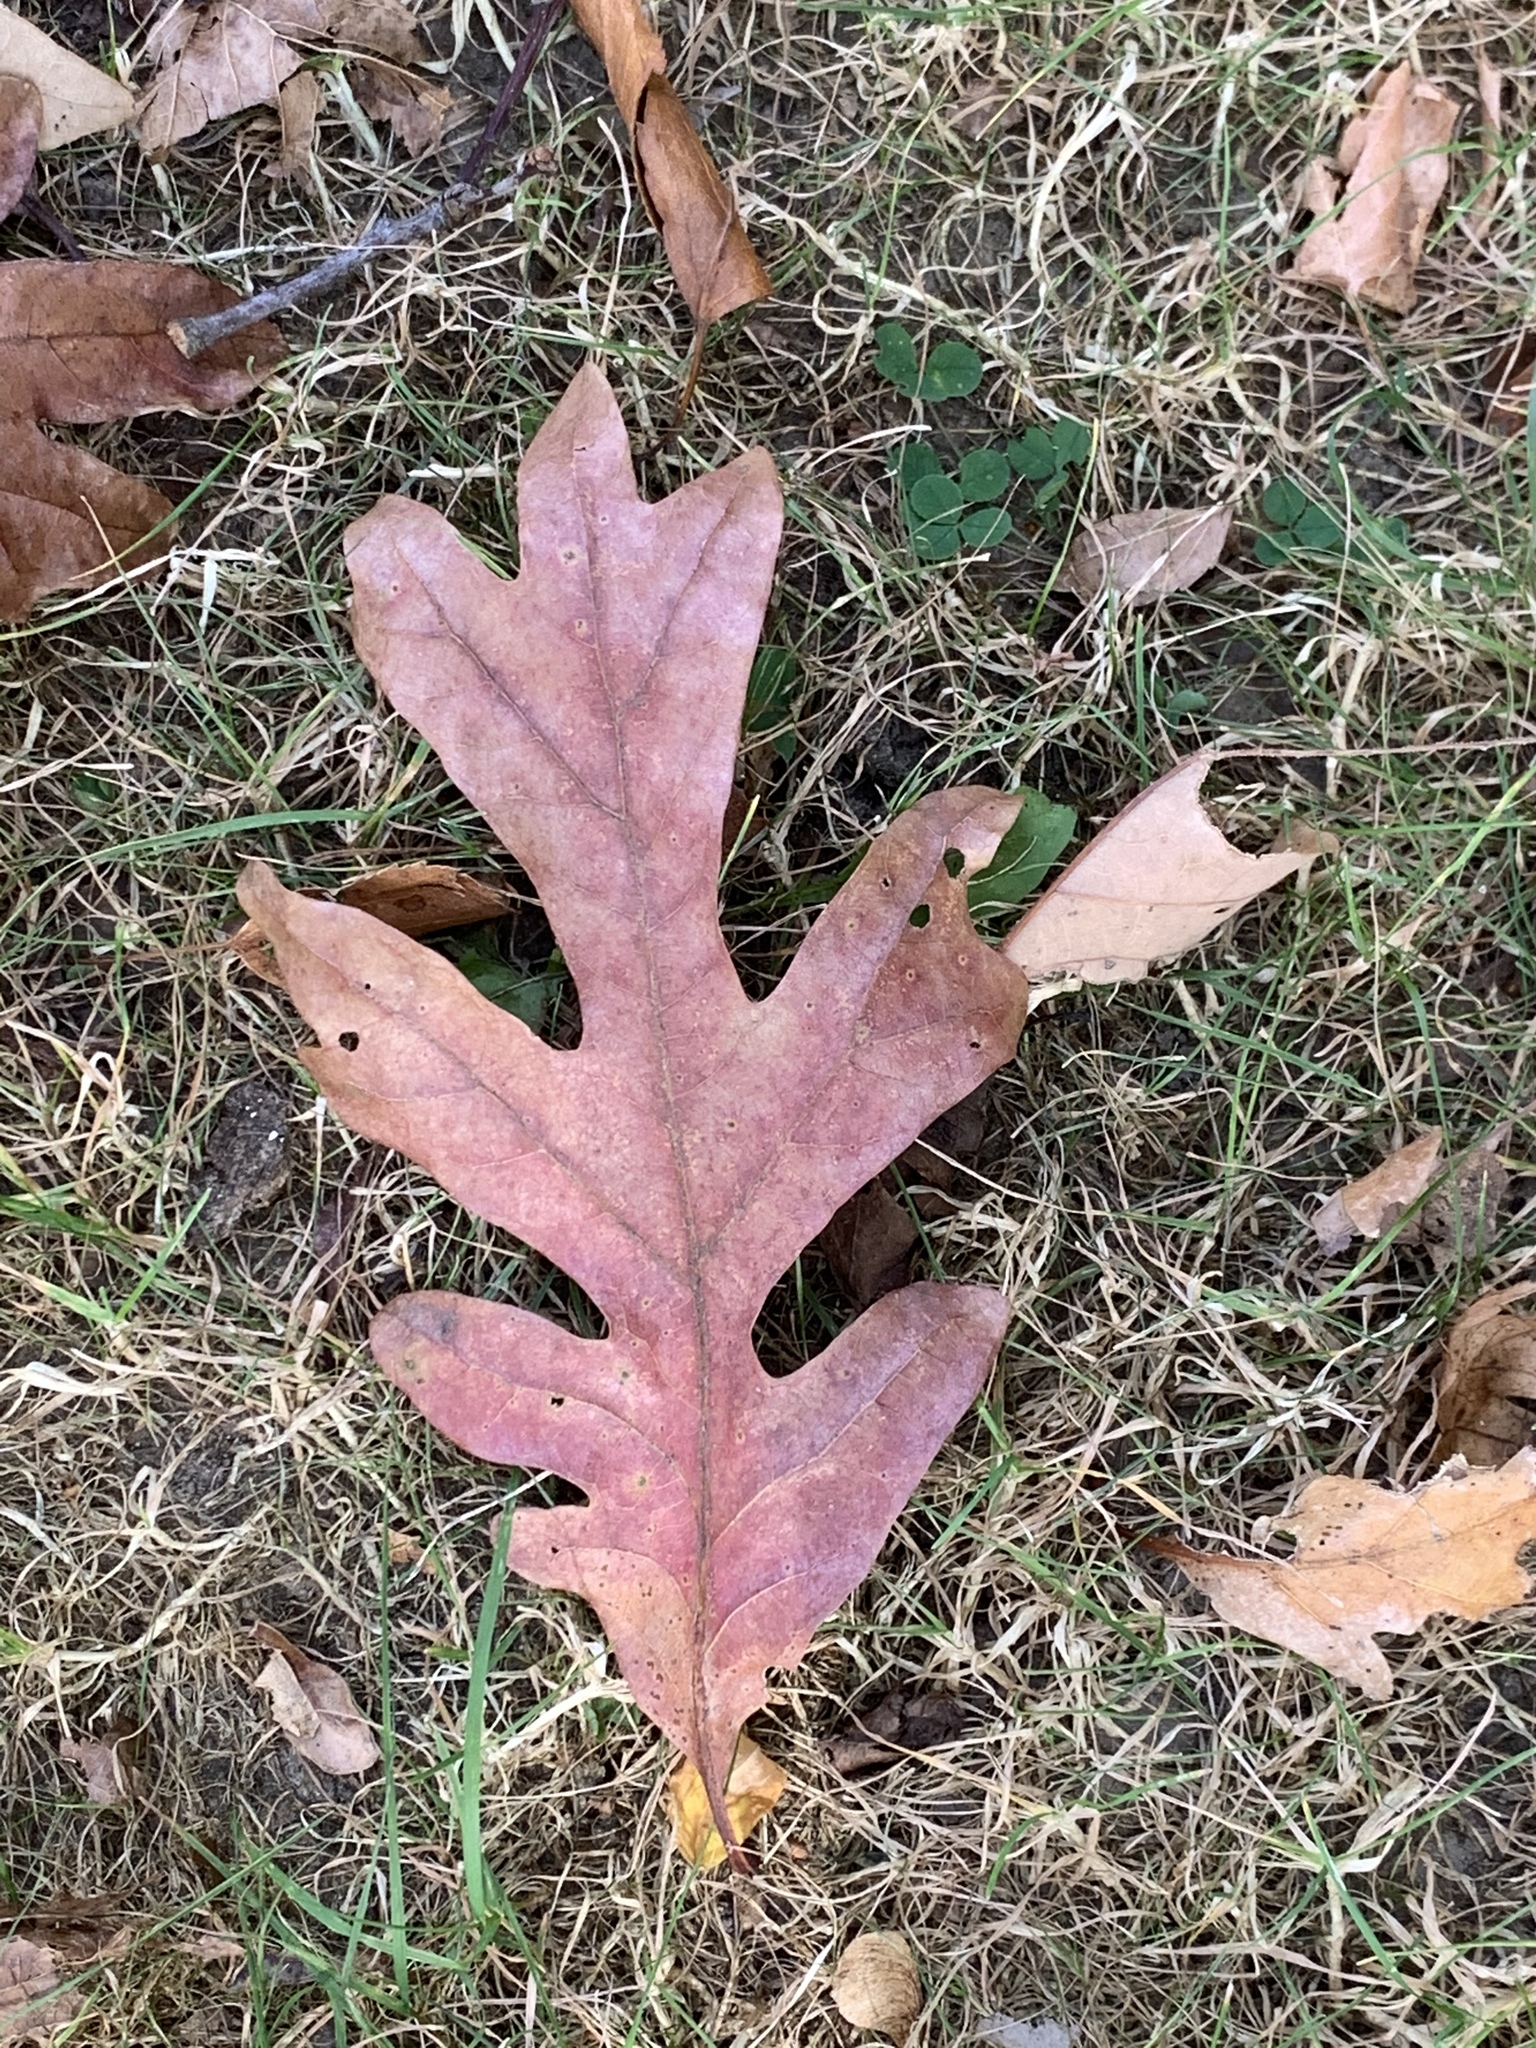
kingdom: Plantae
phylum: Tracheophyta
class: Magnoliopsida
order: Fagales
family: Fagaceae
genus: Quercus
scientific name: Quercus alba
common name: White oak
